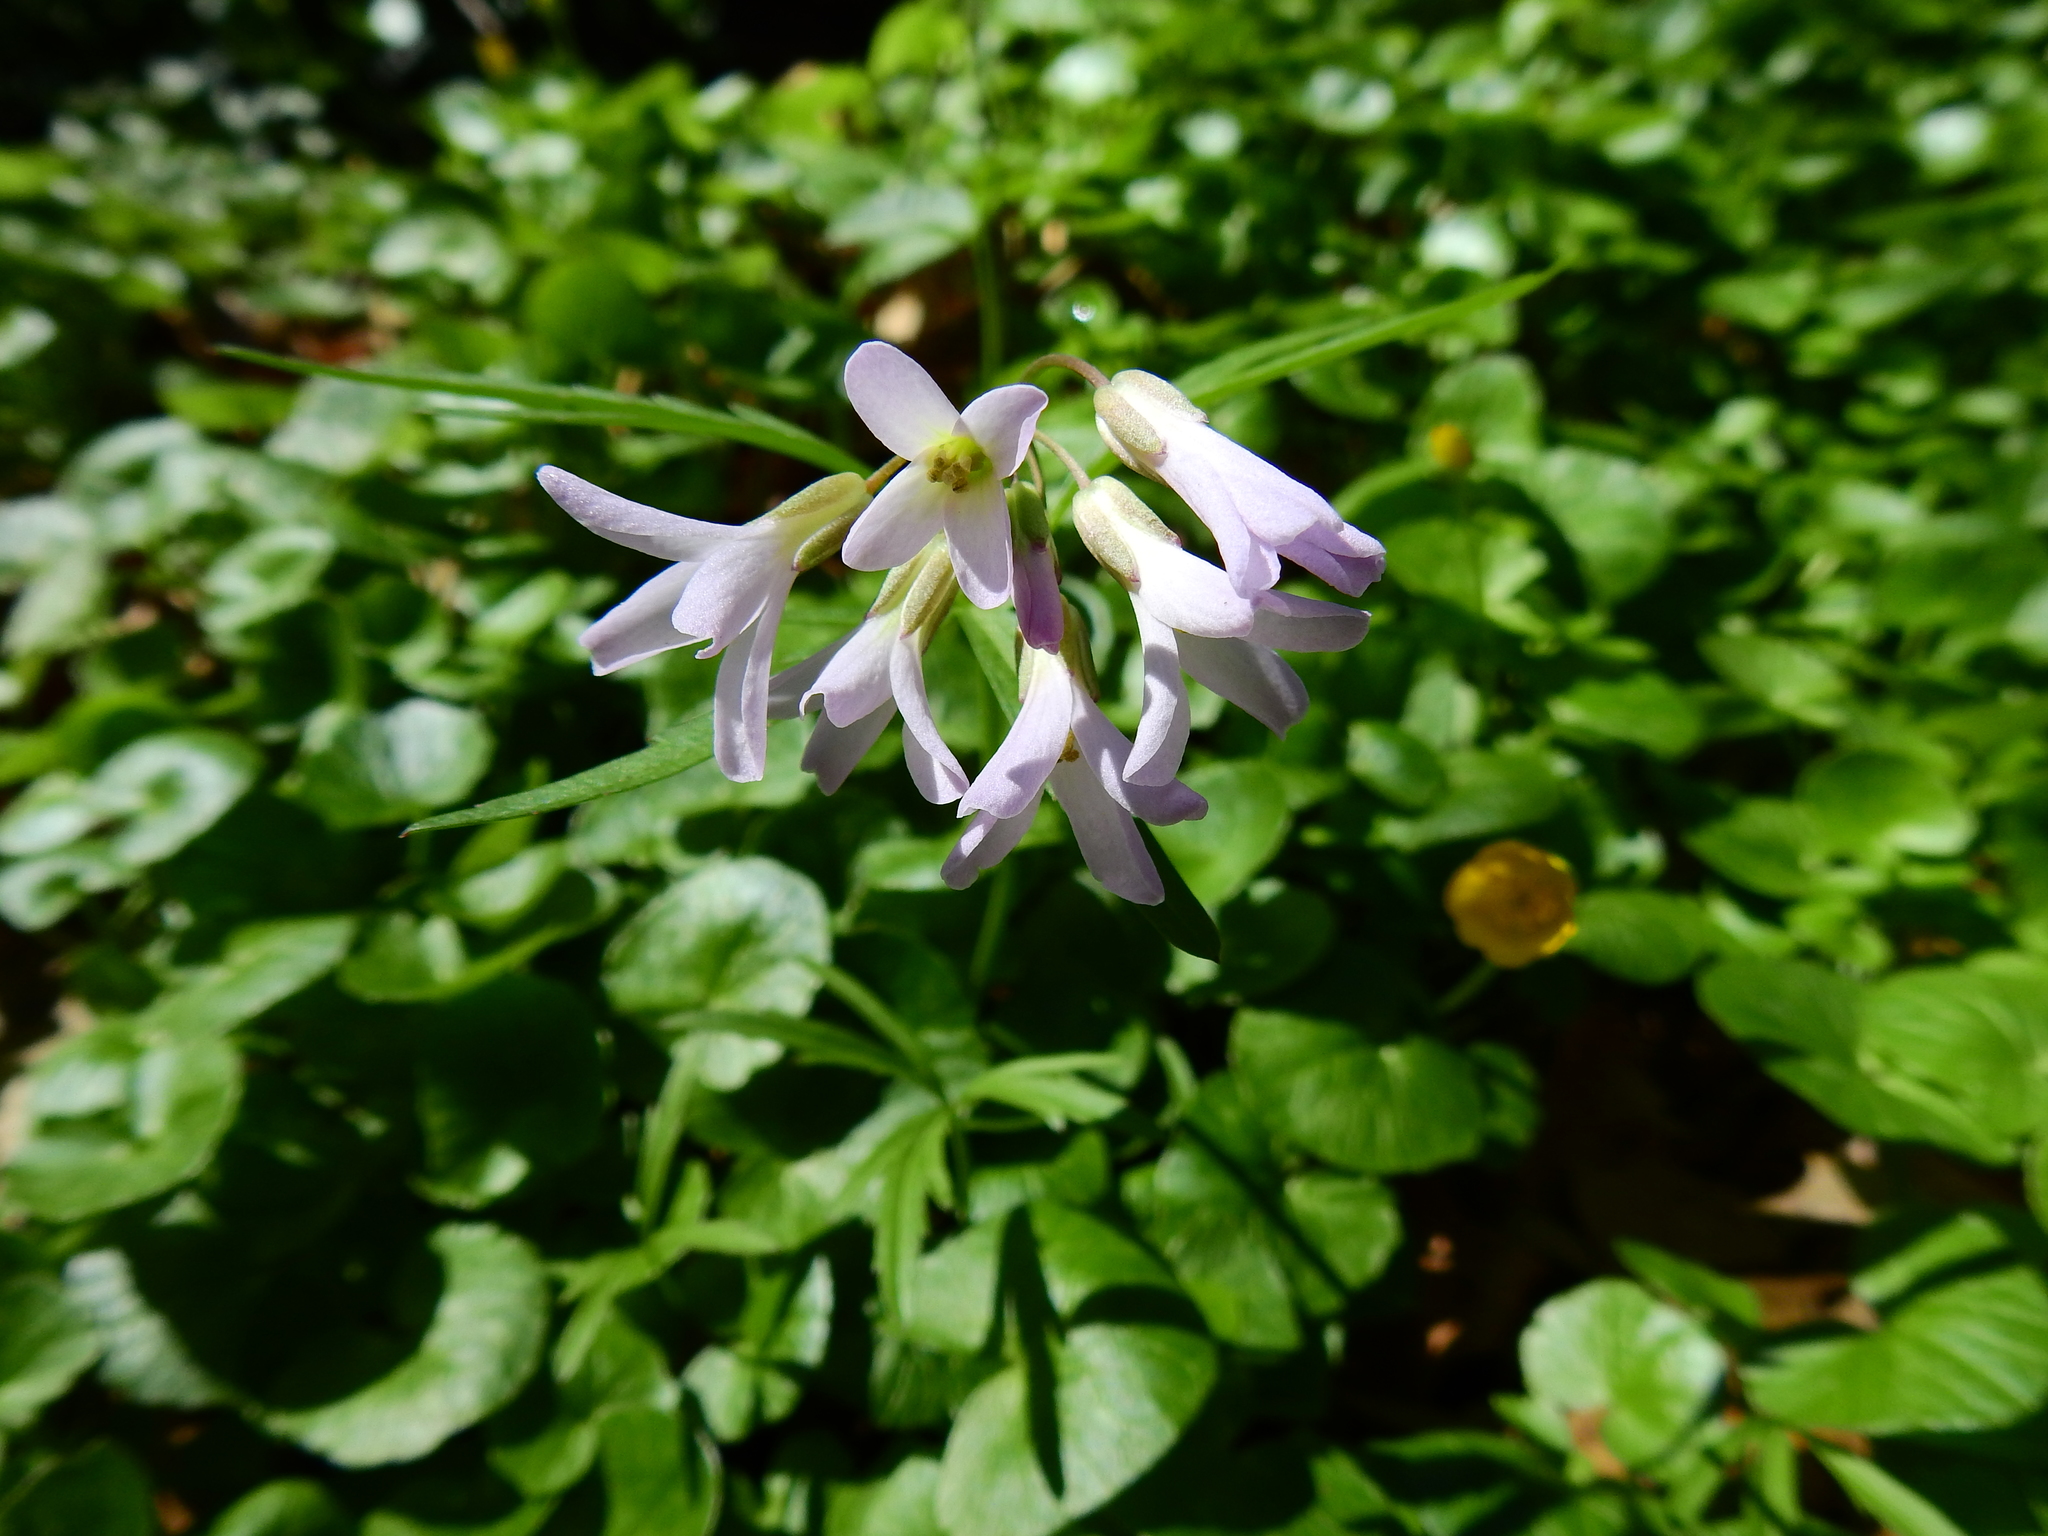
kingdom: Plantae
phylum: Tracheophyta
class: Magnoliopsida
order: Brassicales
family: Brassicaceae
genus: Cardamine
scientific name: Cardamine concatenata
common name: Cut-leaf toothcup
